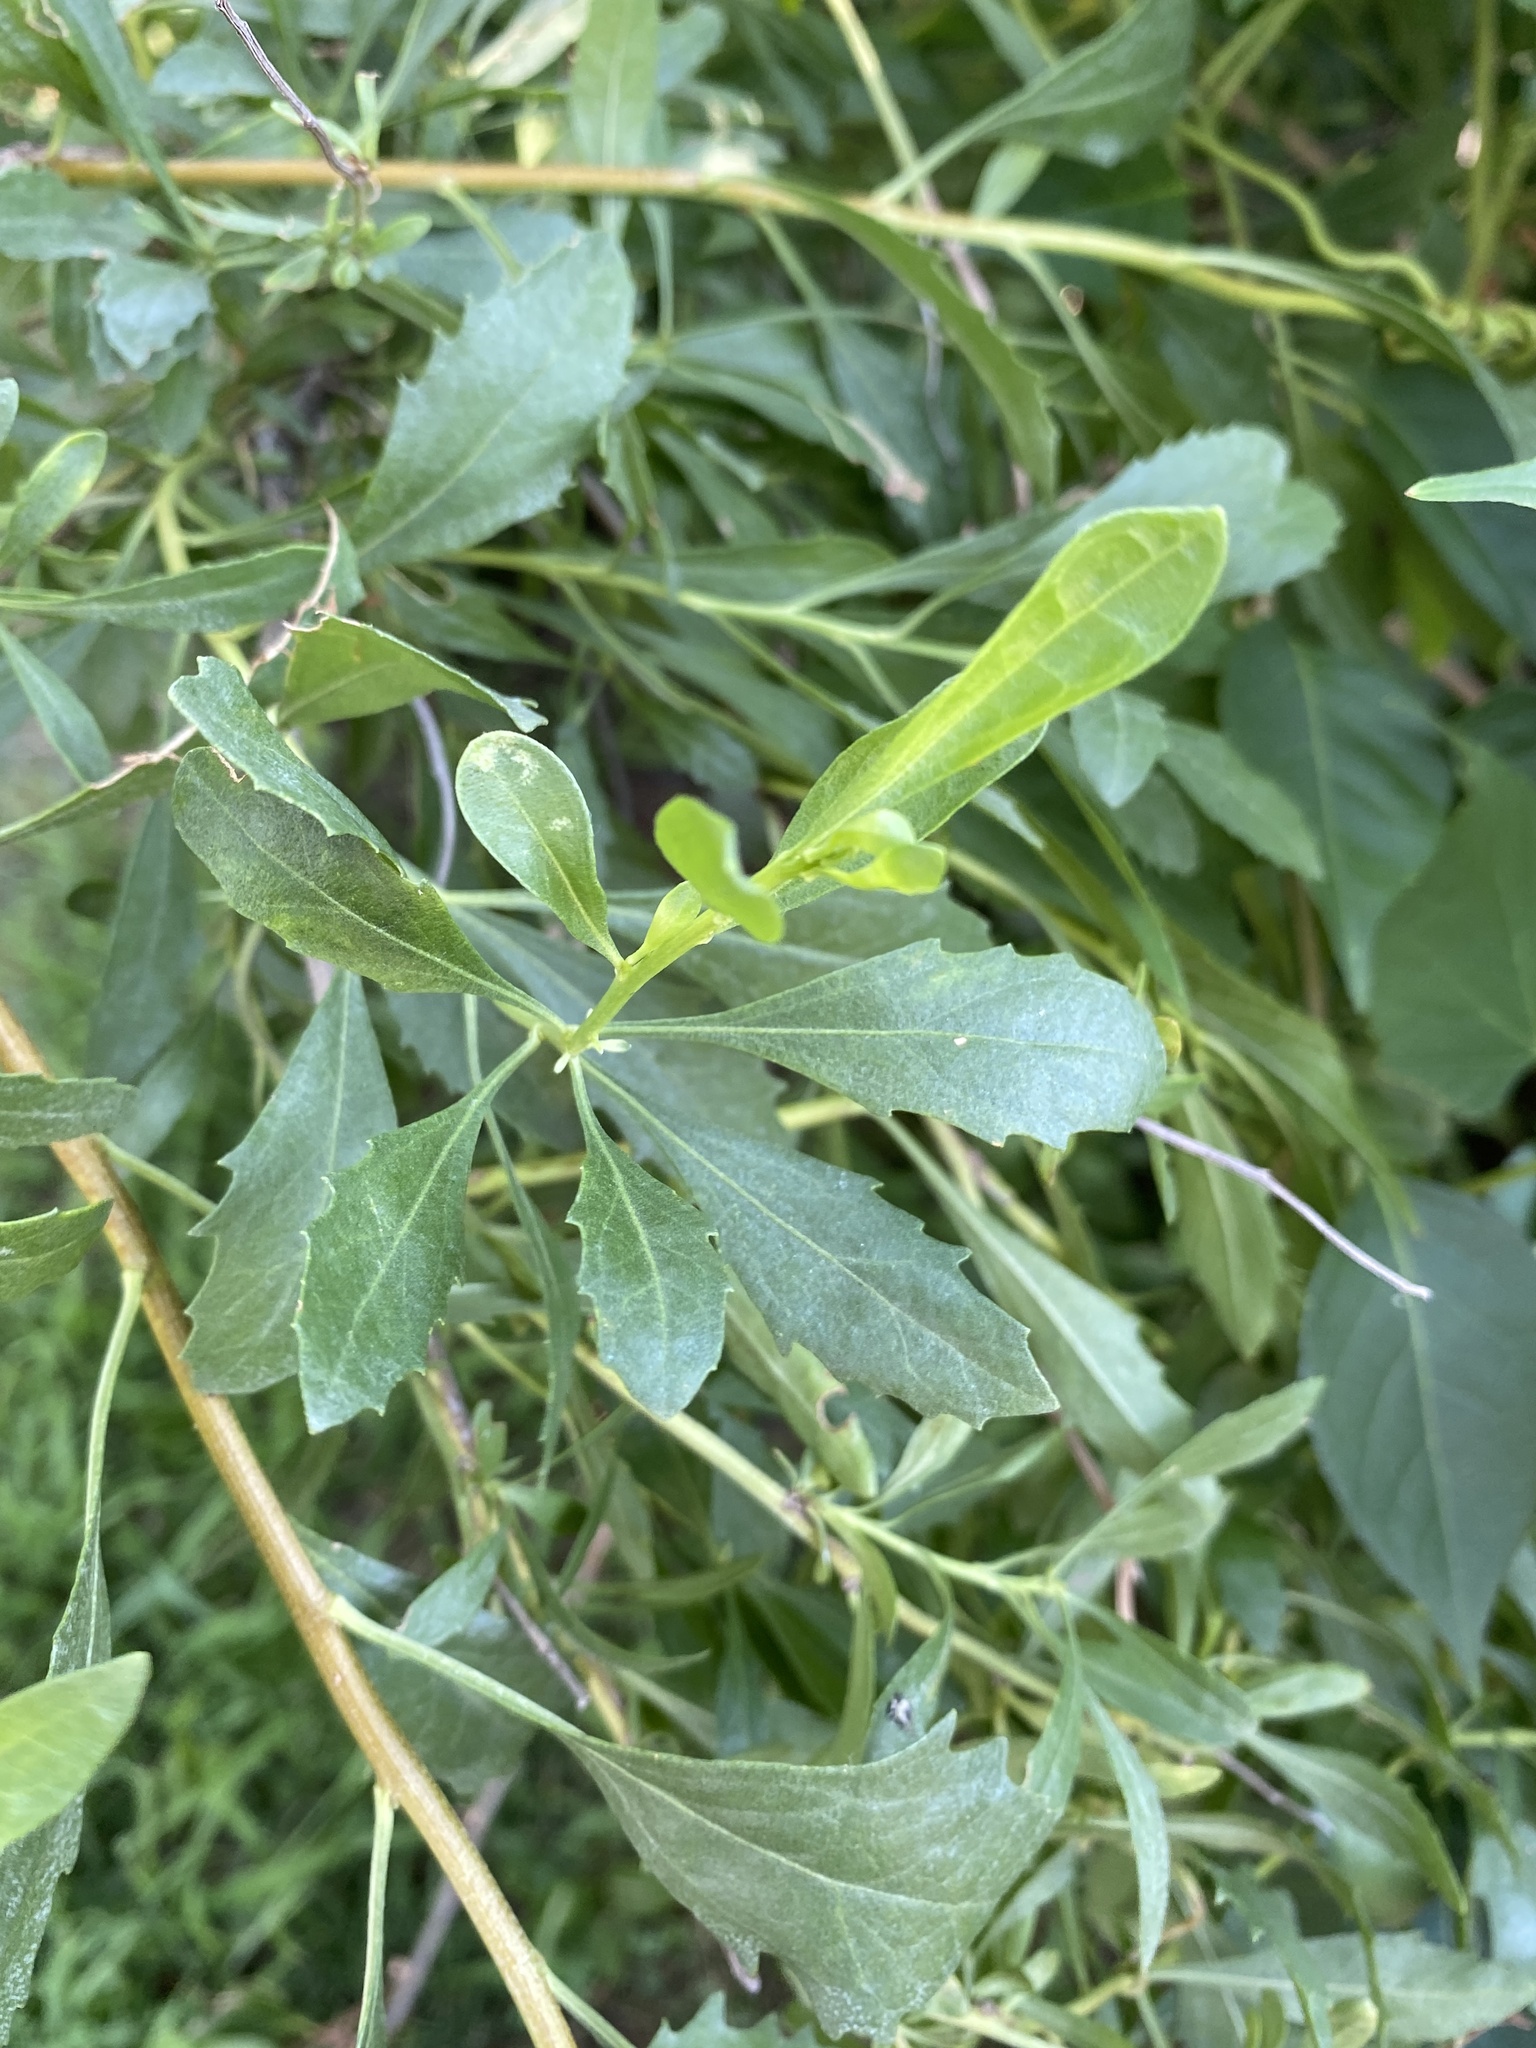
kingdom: Plantae
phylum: Tracheophyta
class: Magnoliopsida
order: Asterales
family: Asteraceae
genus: Baccharis
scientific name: Baccharis halimifolia
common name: Eastern baccharis
